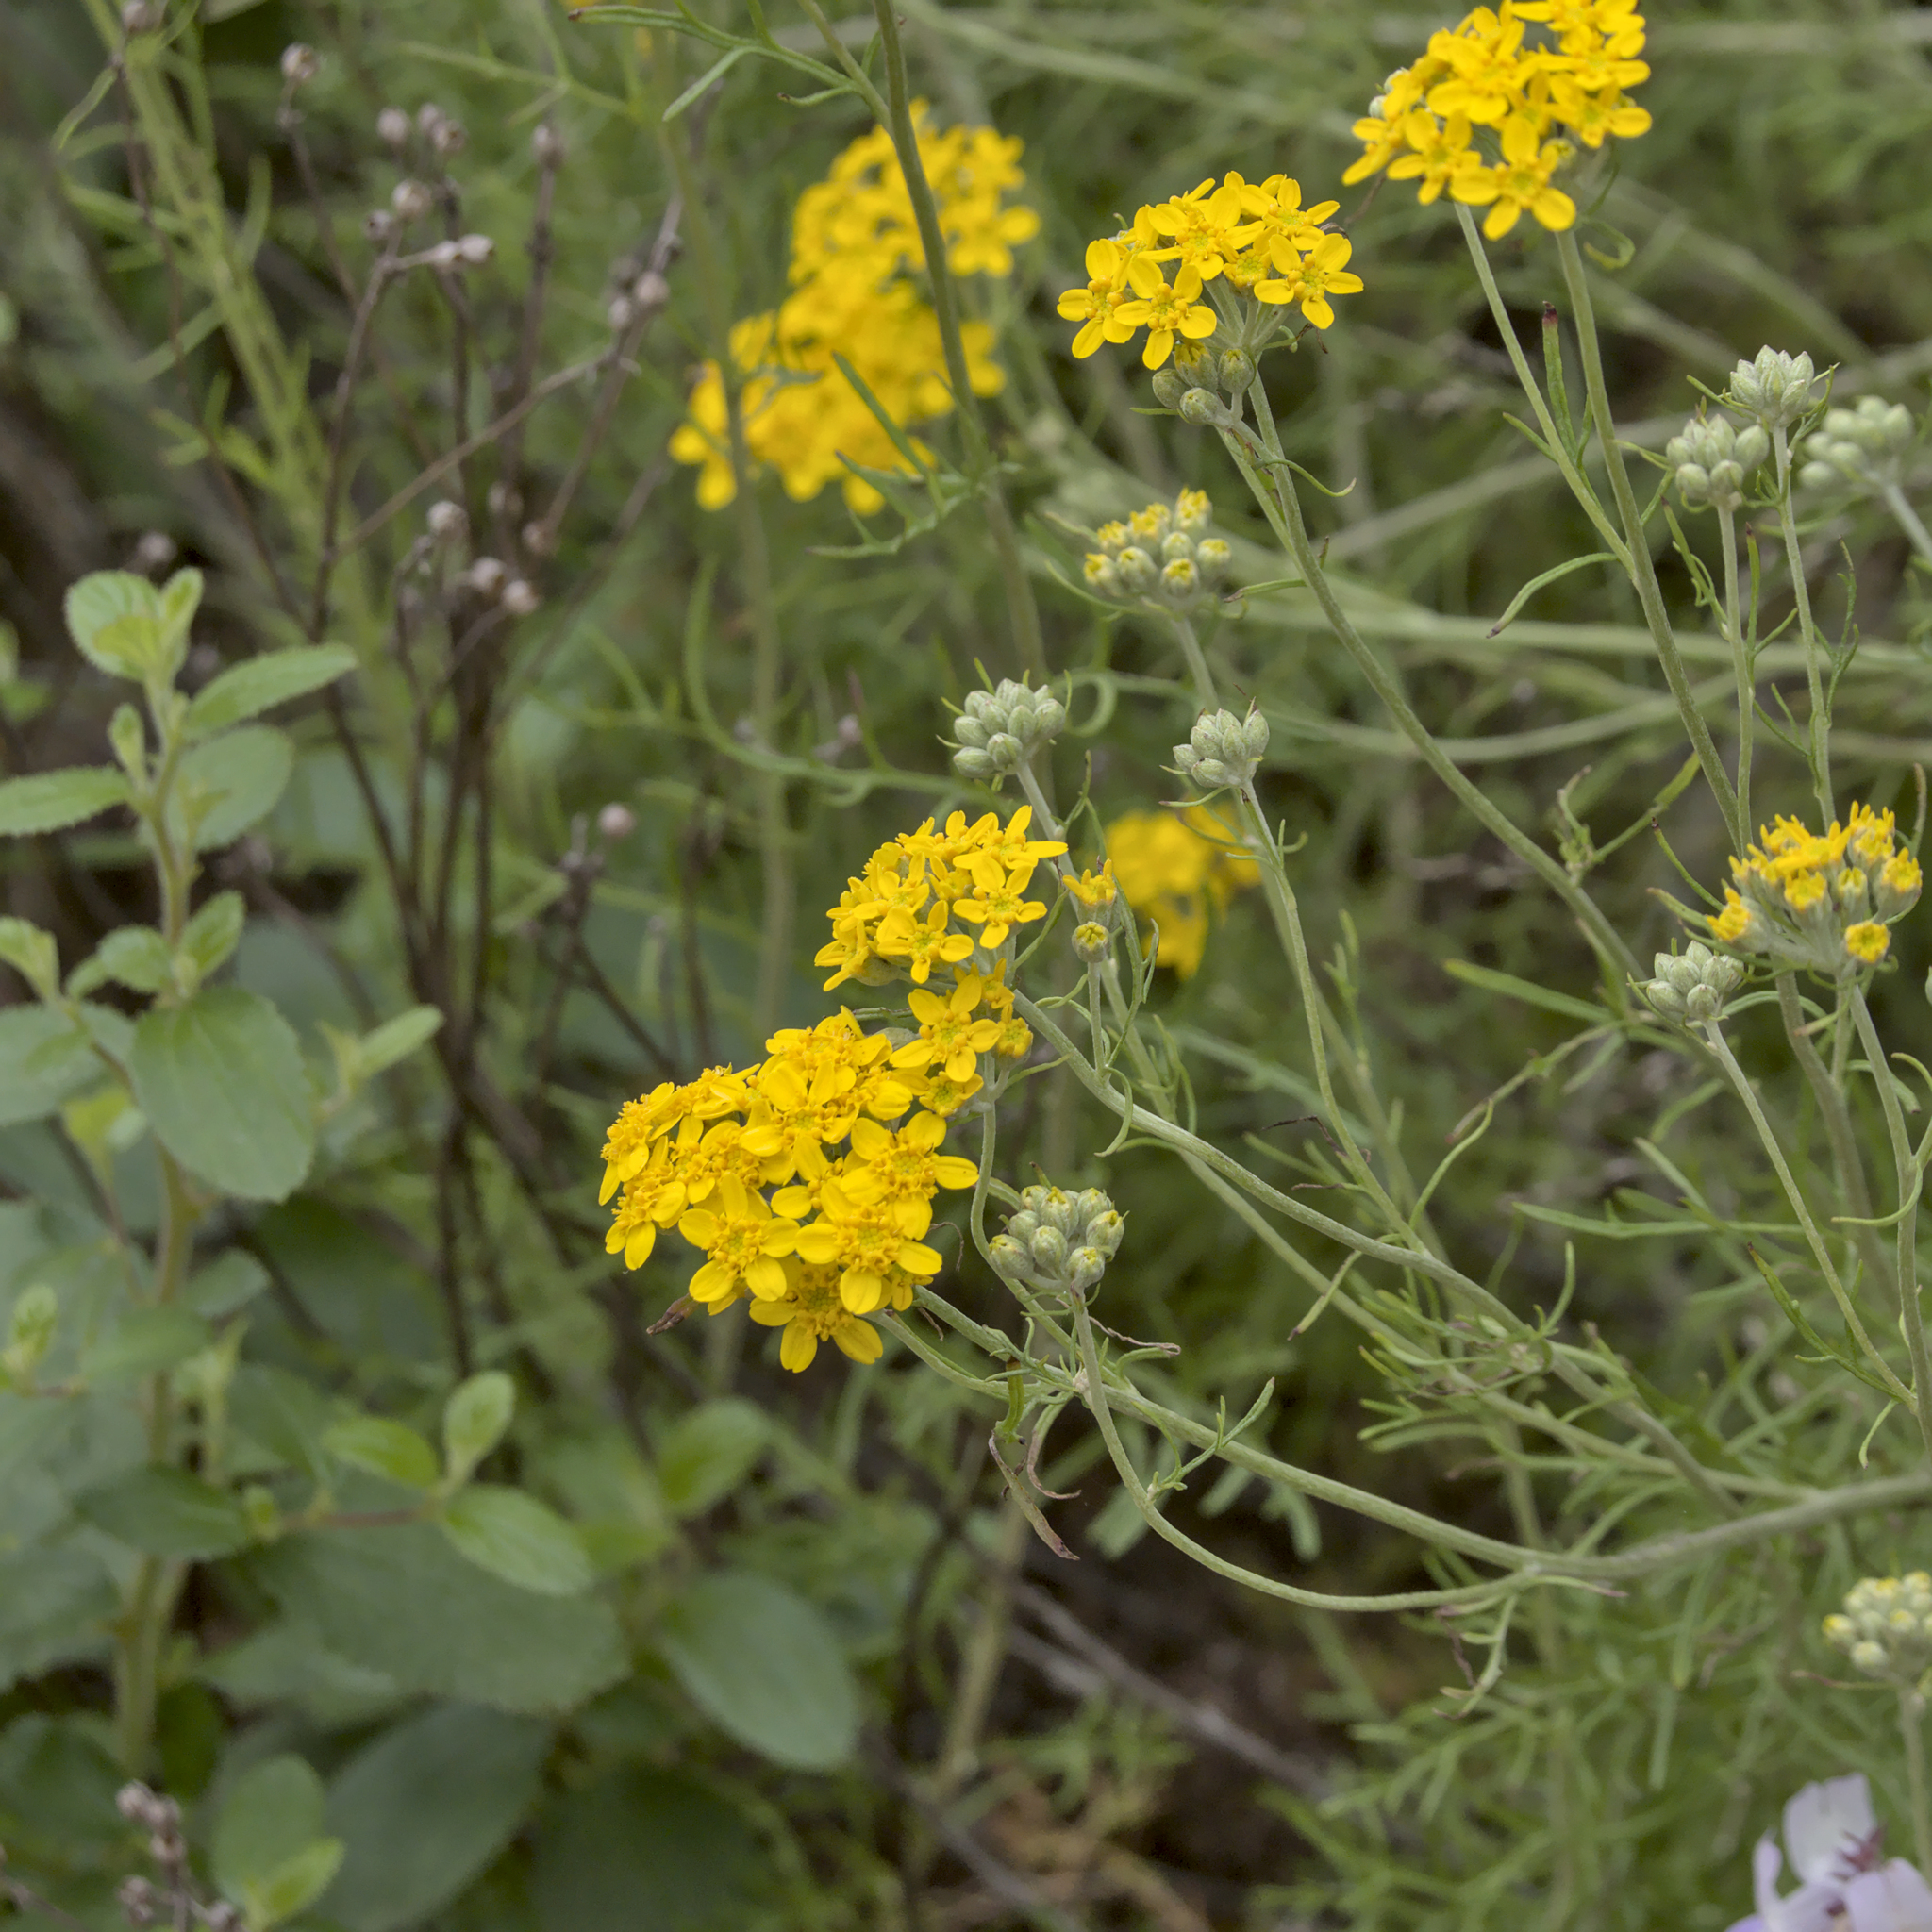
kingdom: Plantae
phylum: Tracheophyta
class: Magnoliopsida
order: Asterales
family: Asteraceae
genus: Eriophyllum
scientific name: Eriophyllum confertiflorum
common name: Golden-yarrow
